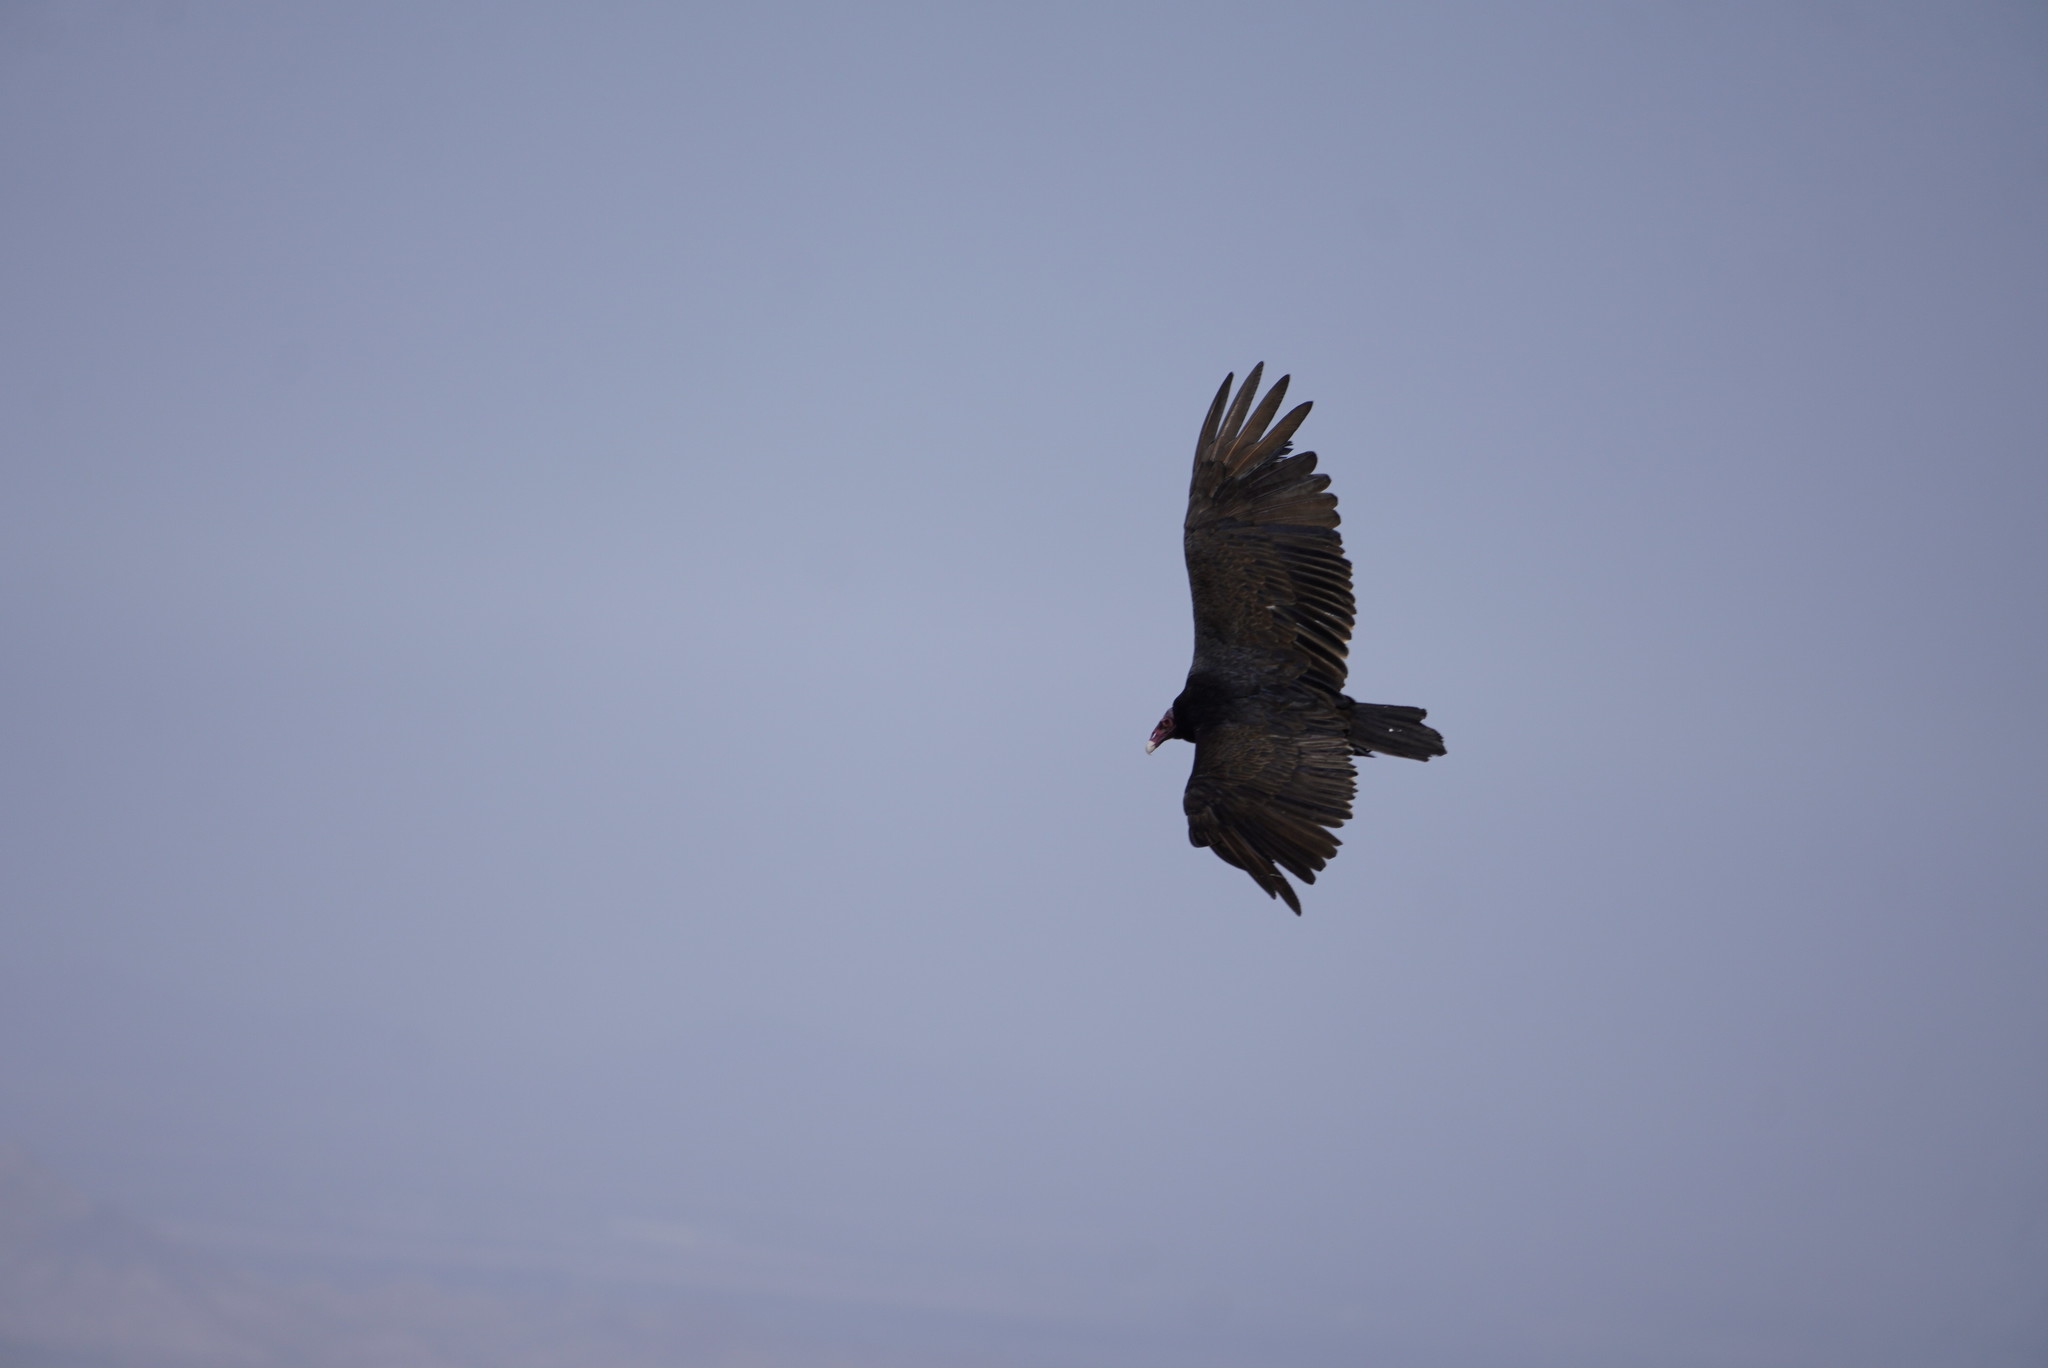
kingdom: Animalia
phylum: Chordata
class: Aves
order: Accipitriformes
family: Cathartidae
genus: Cathartes
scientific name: Cathartes aura
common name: Turkey vulture
